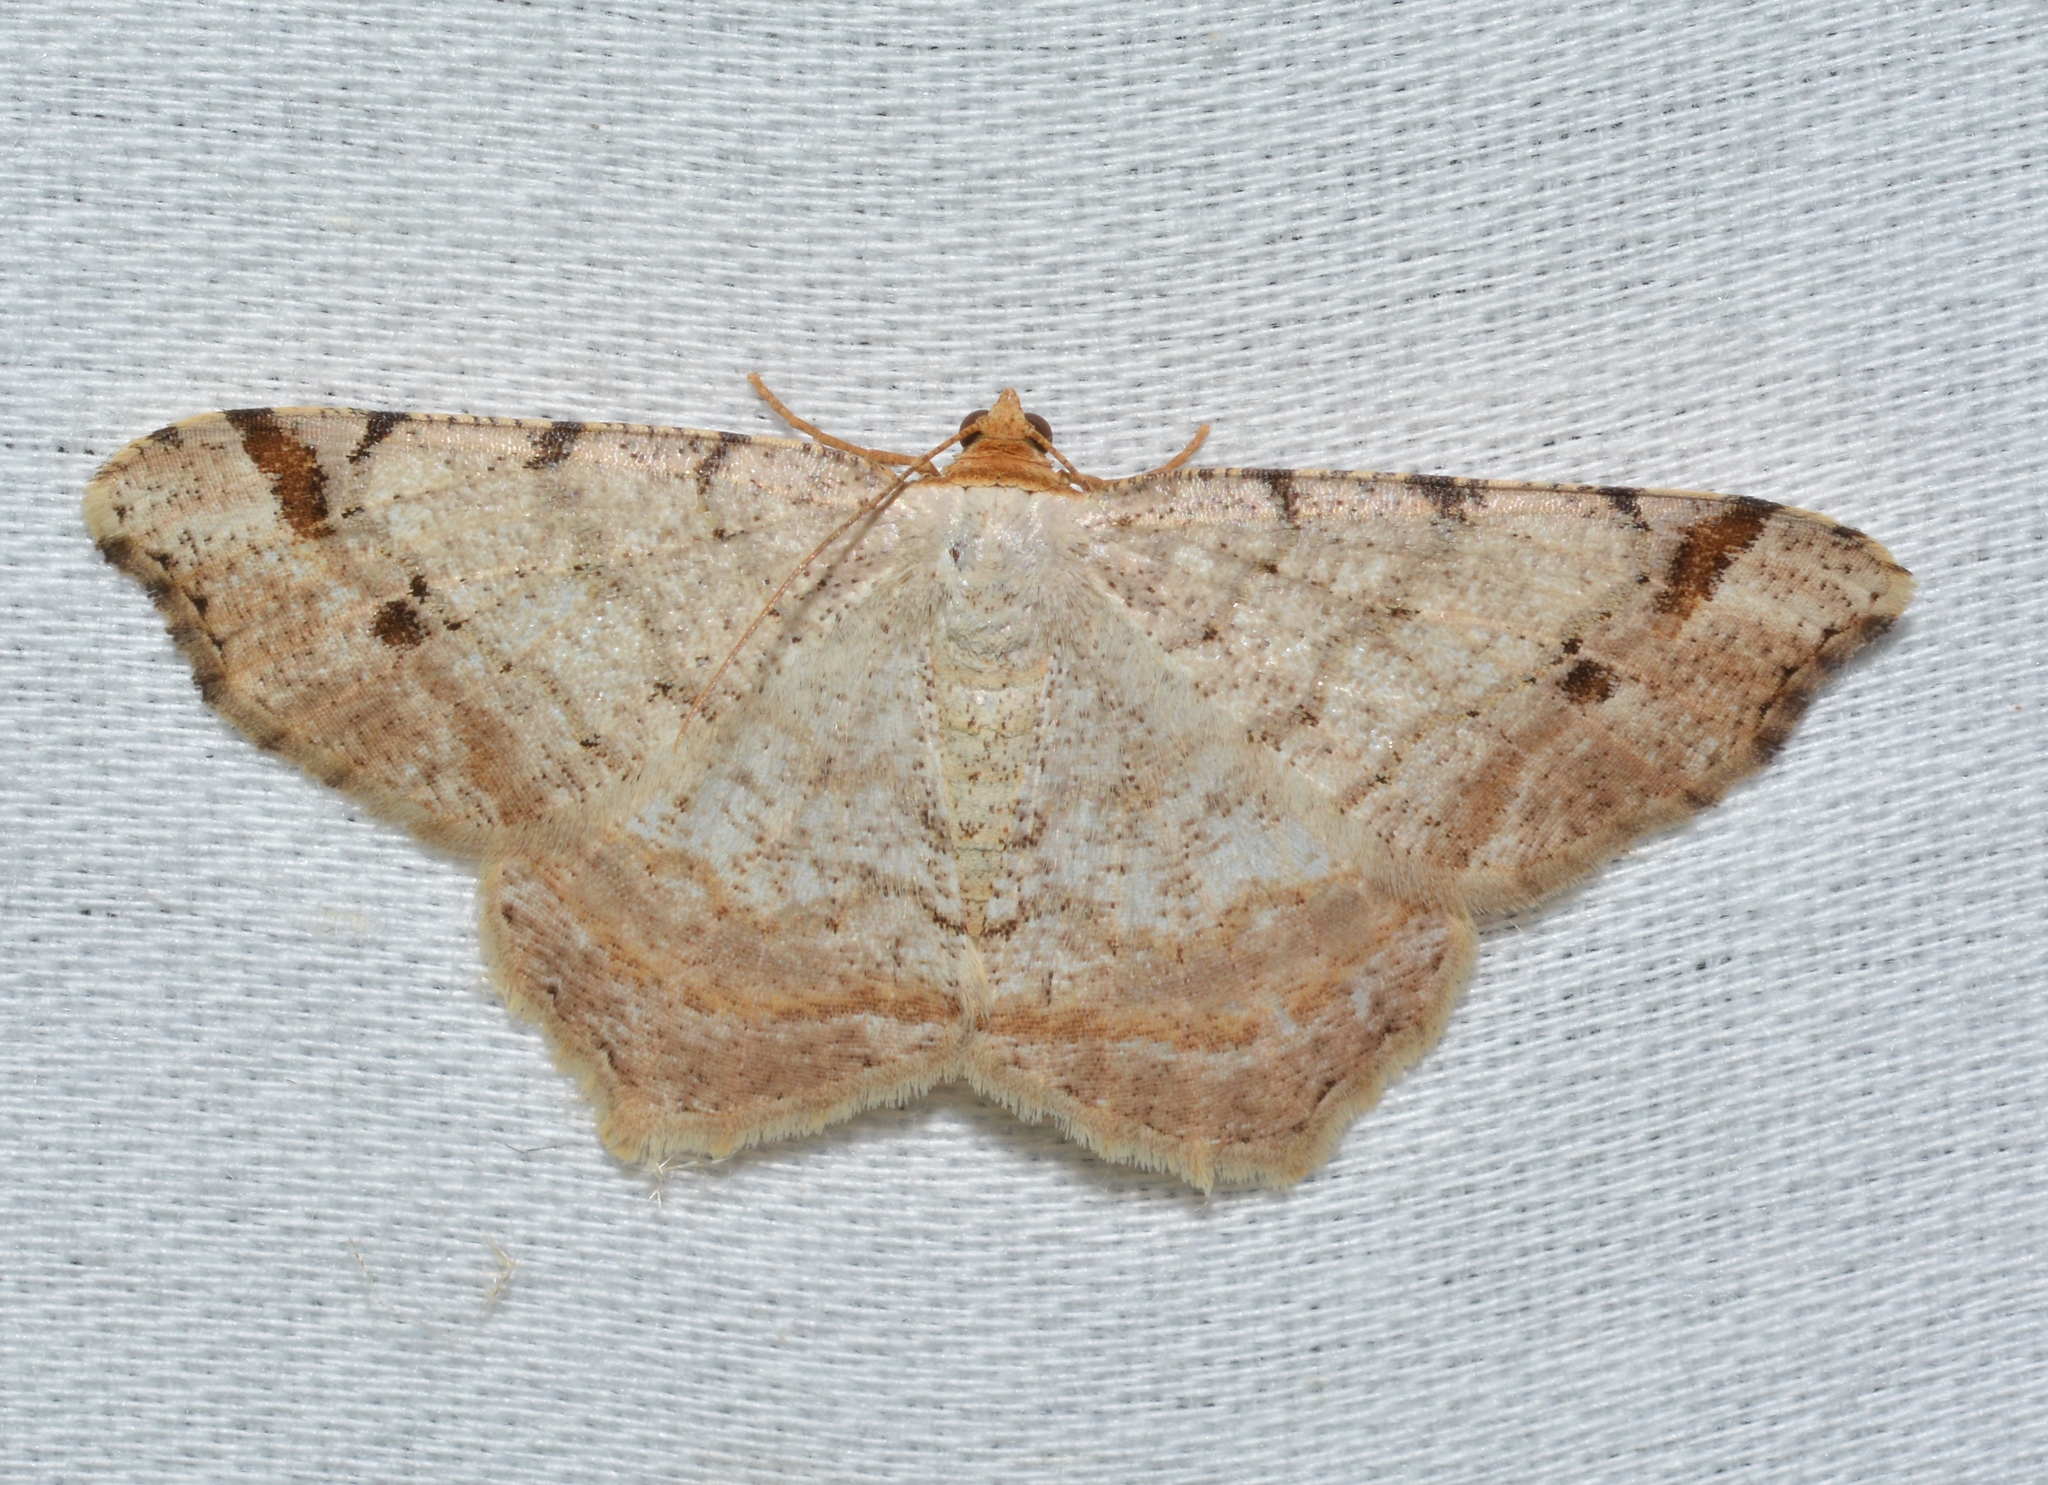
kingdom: Animalia
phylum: Arthropoda
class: Insecta
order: Lepidoptera
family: Geometridae
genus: Macaria
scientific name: Macaria bisignata
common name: Red-headed inchworm
